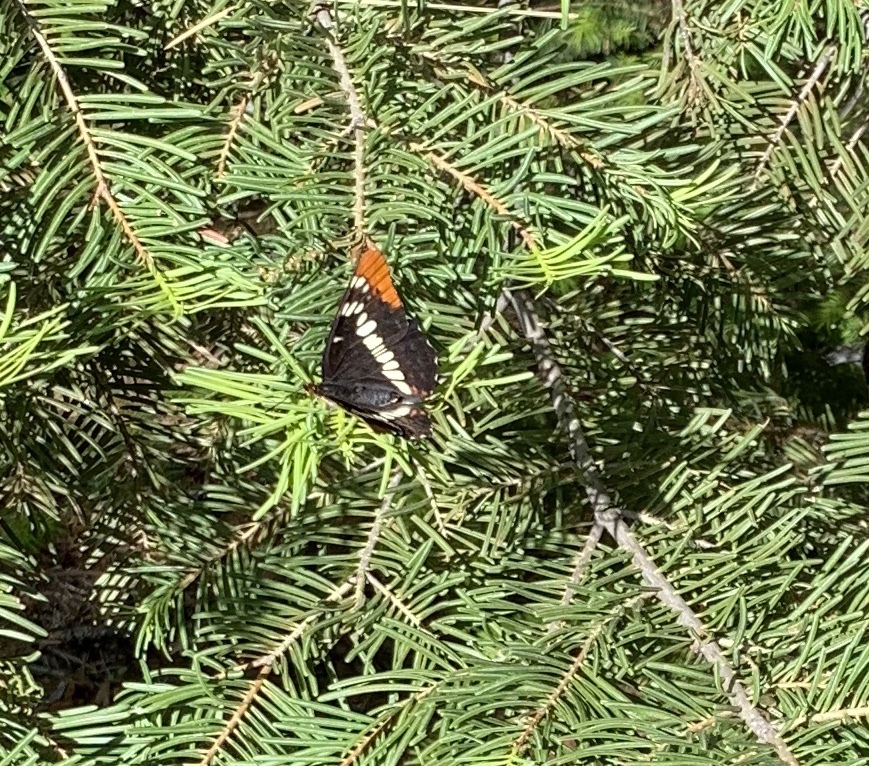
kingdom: Animalia
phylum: Arthropoda
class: Insecta
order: Lepidoptera
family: Nymphalidae
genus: Limenitis
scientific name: Limenitis lorquini
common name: Lorquin's admiral
